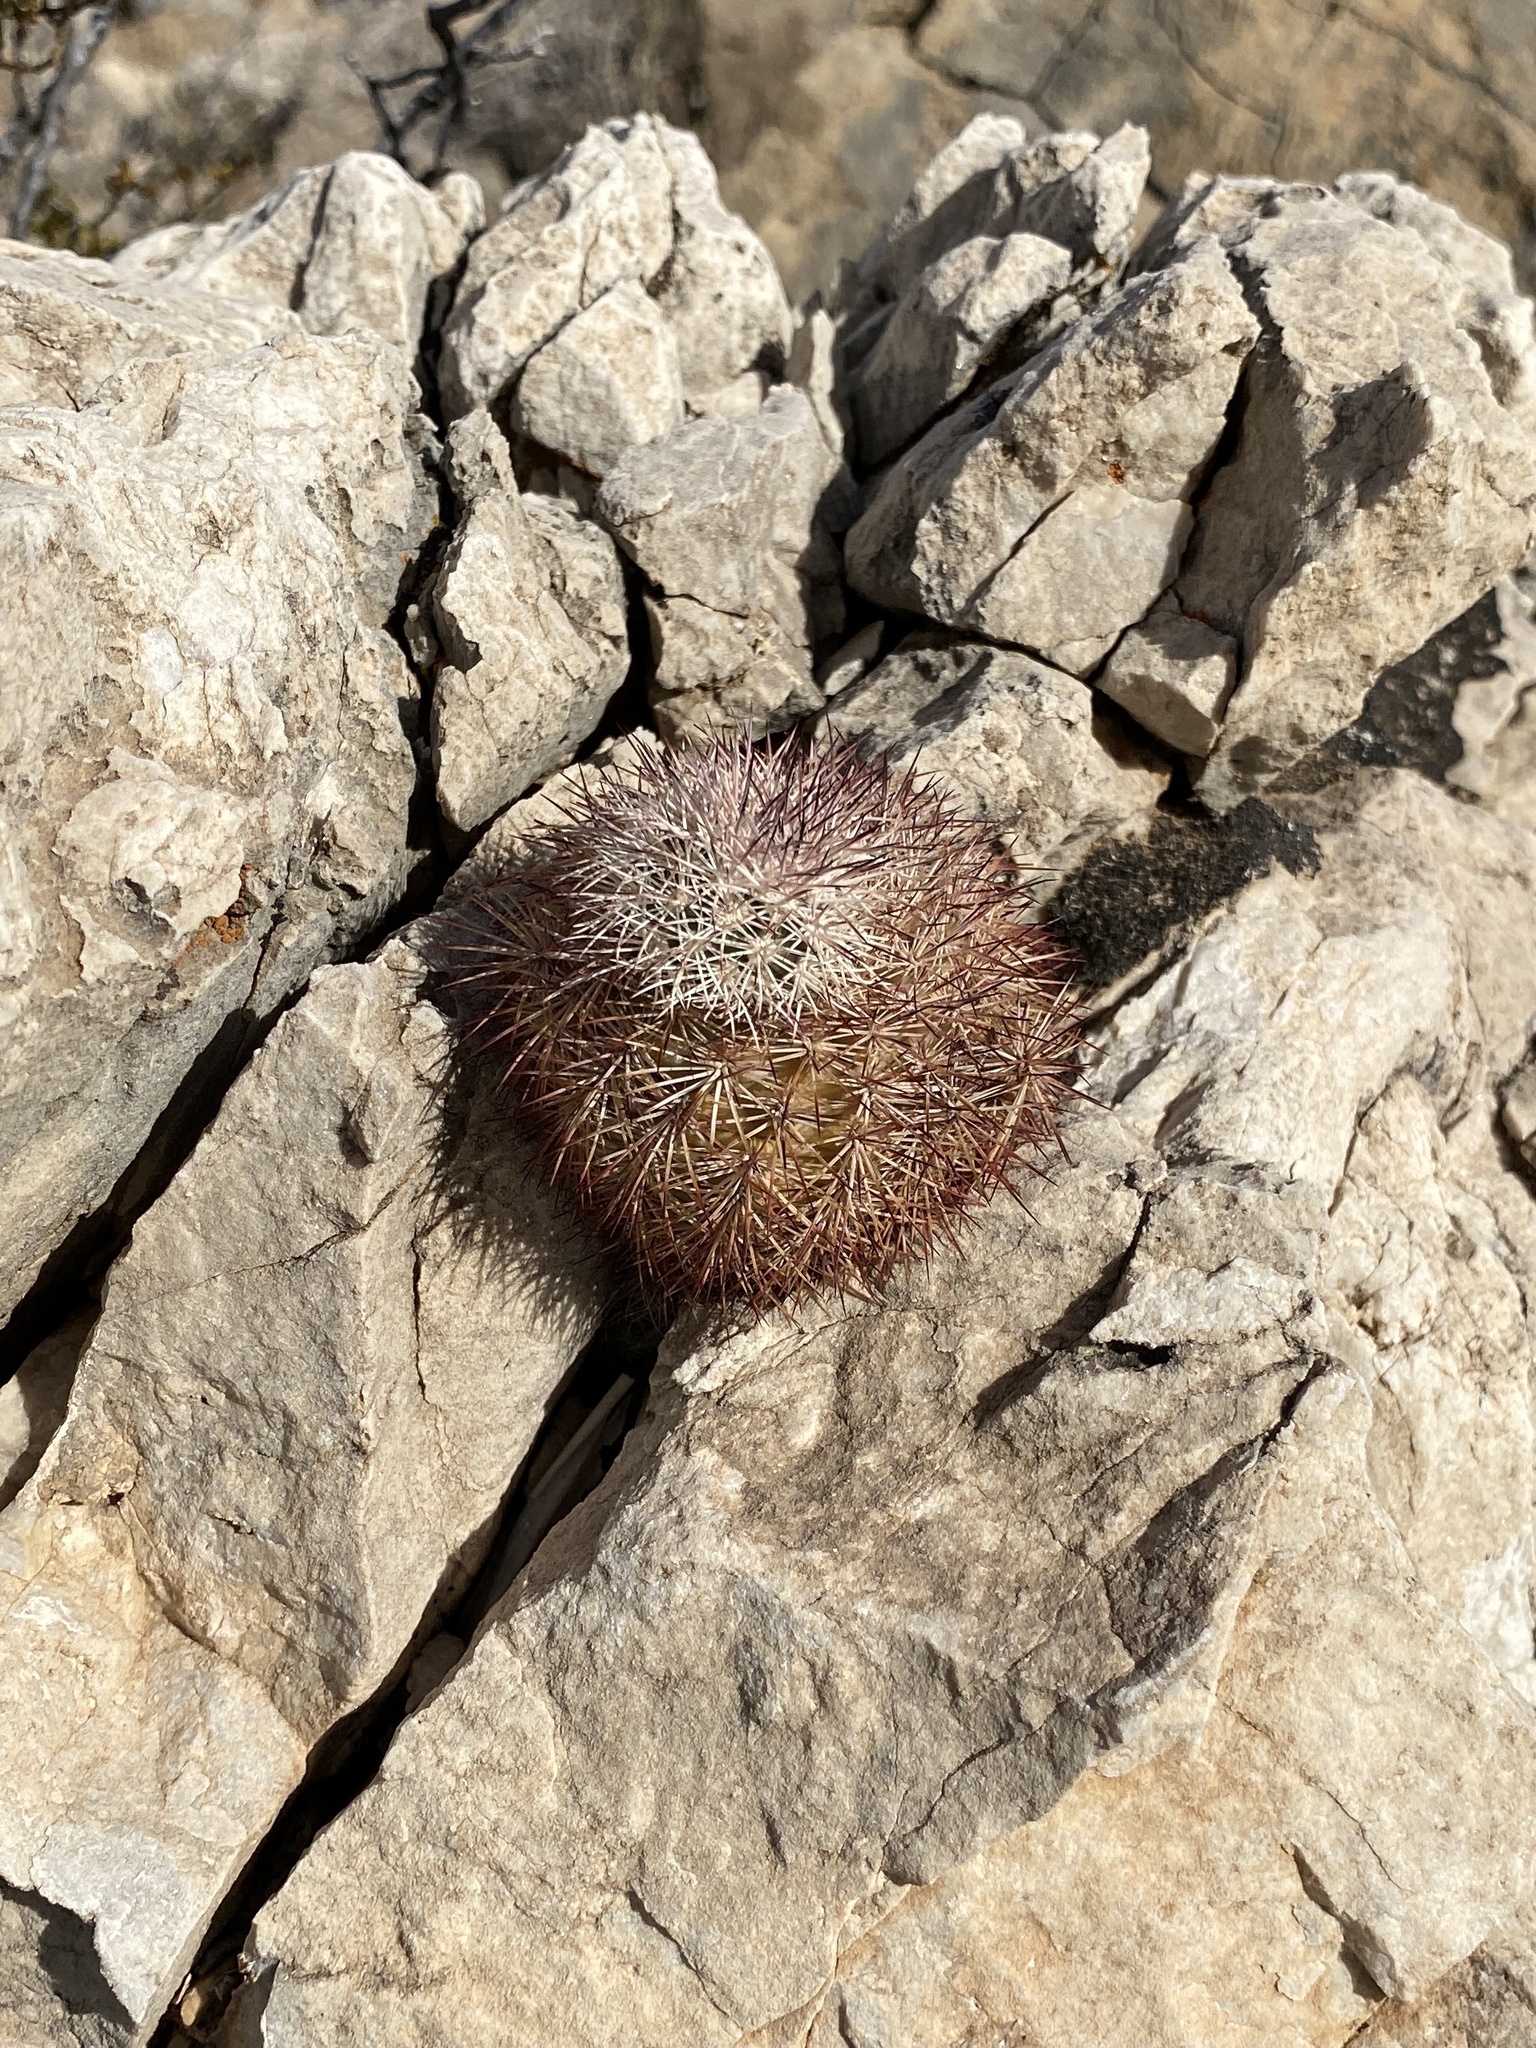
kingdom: Plantae
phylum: Tracheophyta
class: Magnoliopsida
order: Caryophyllales
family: Cactaceae
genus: Echinocereus
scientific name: Echinocereus dasyacanthus
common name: Spiny hedgehog cactus
